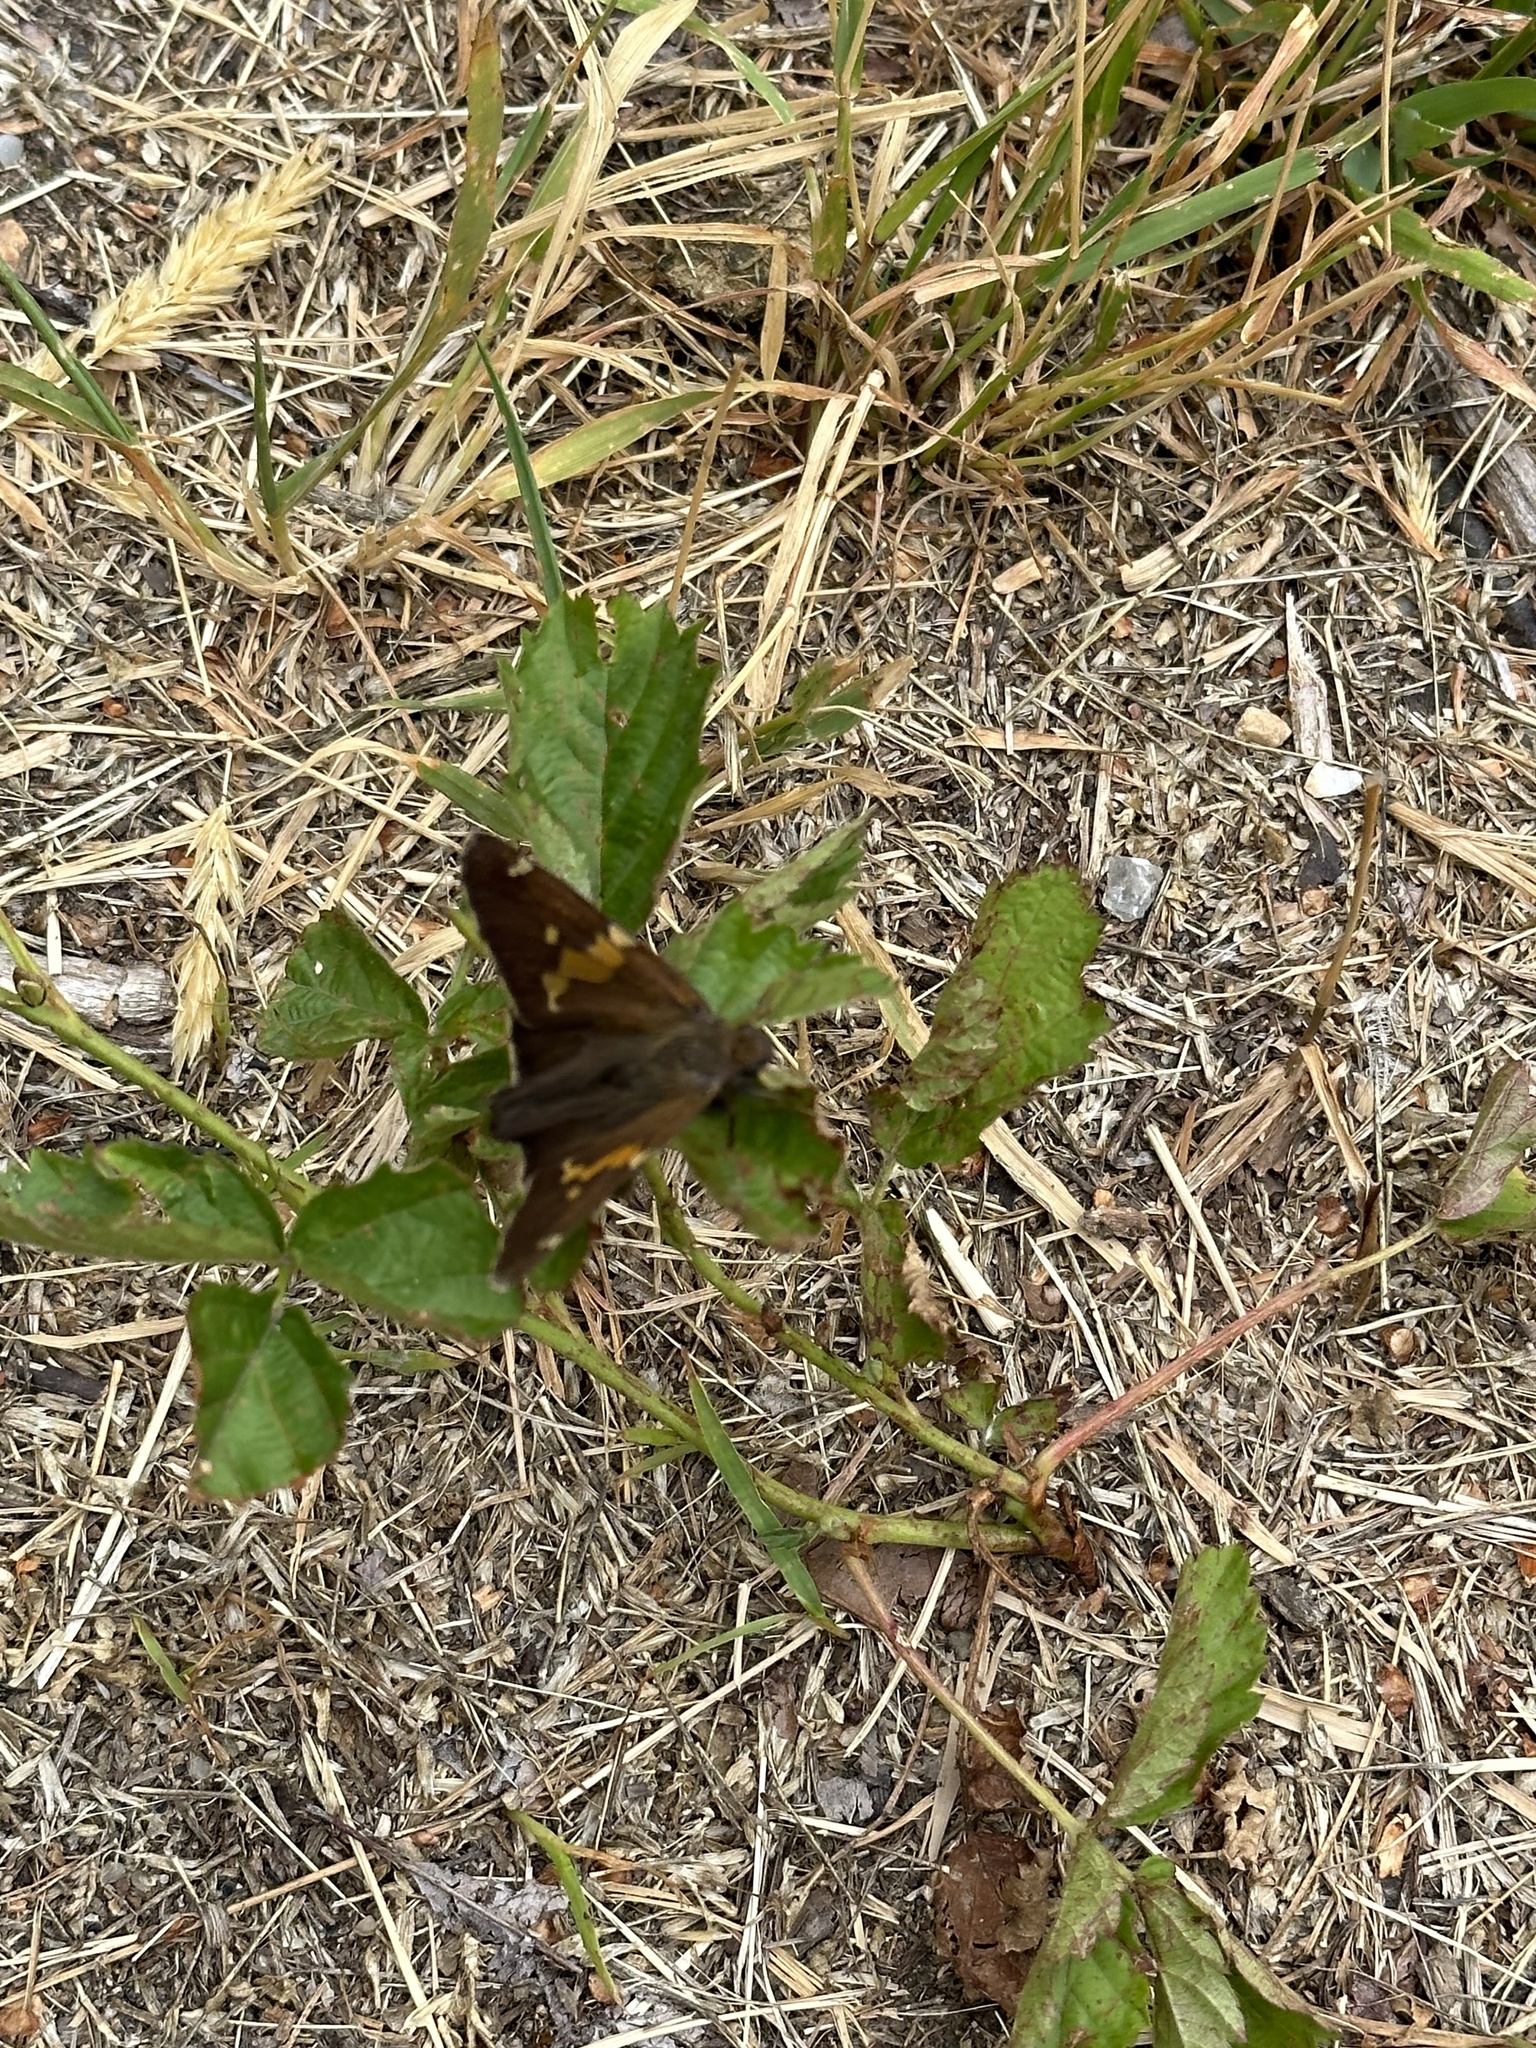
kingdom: Animalia
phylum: Arthropoda
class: Insecta
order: Lepidoptera
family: Hesperiidae
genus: Epargyreus
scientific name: Epargyreus clarus
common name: Silver-spotted skipper
